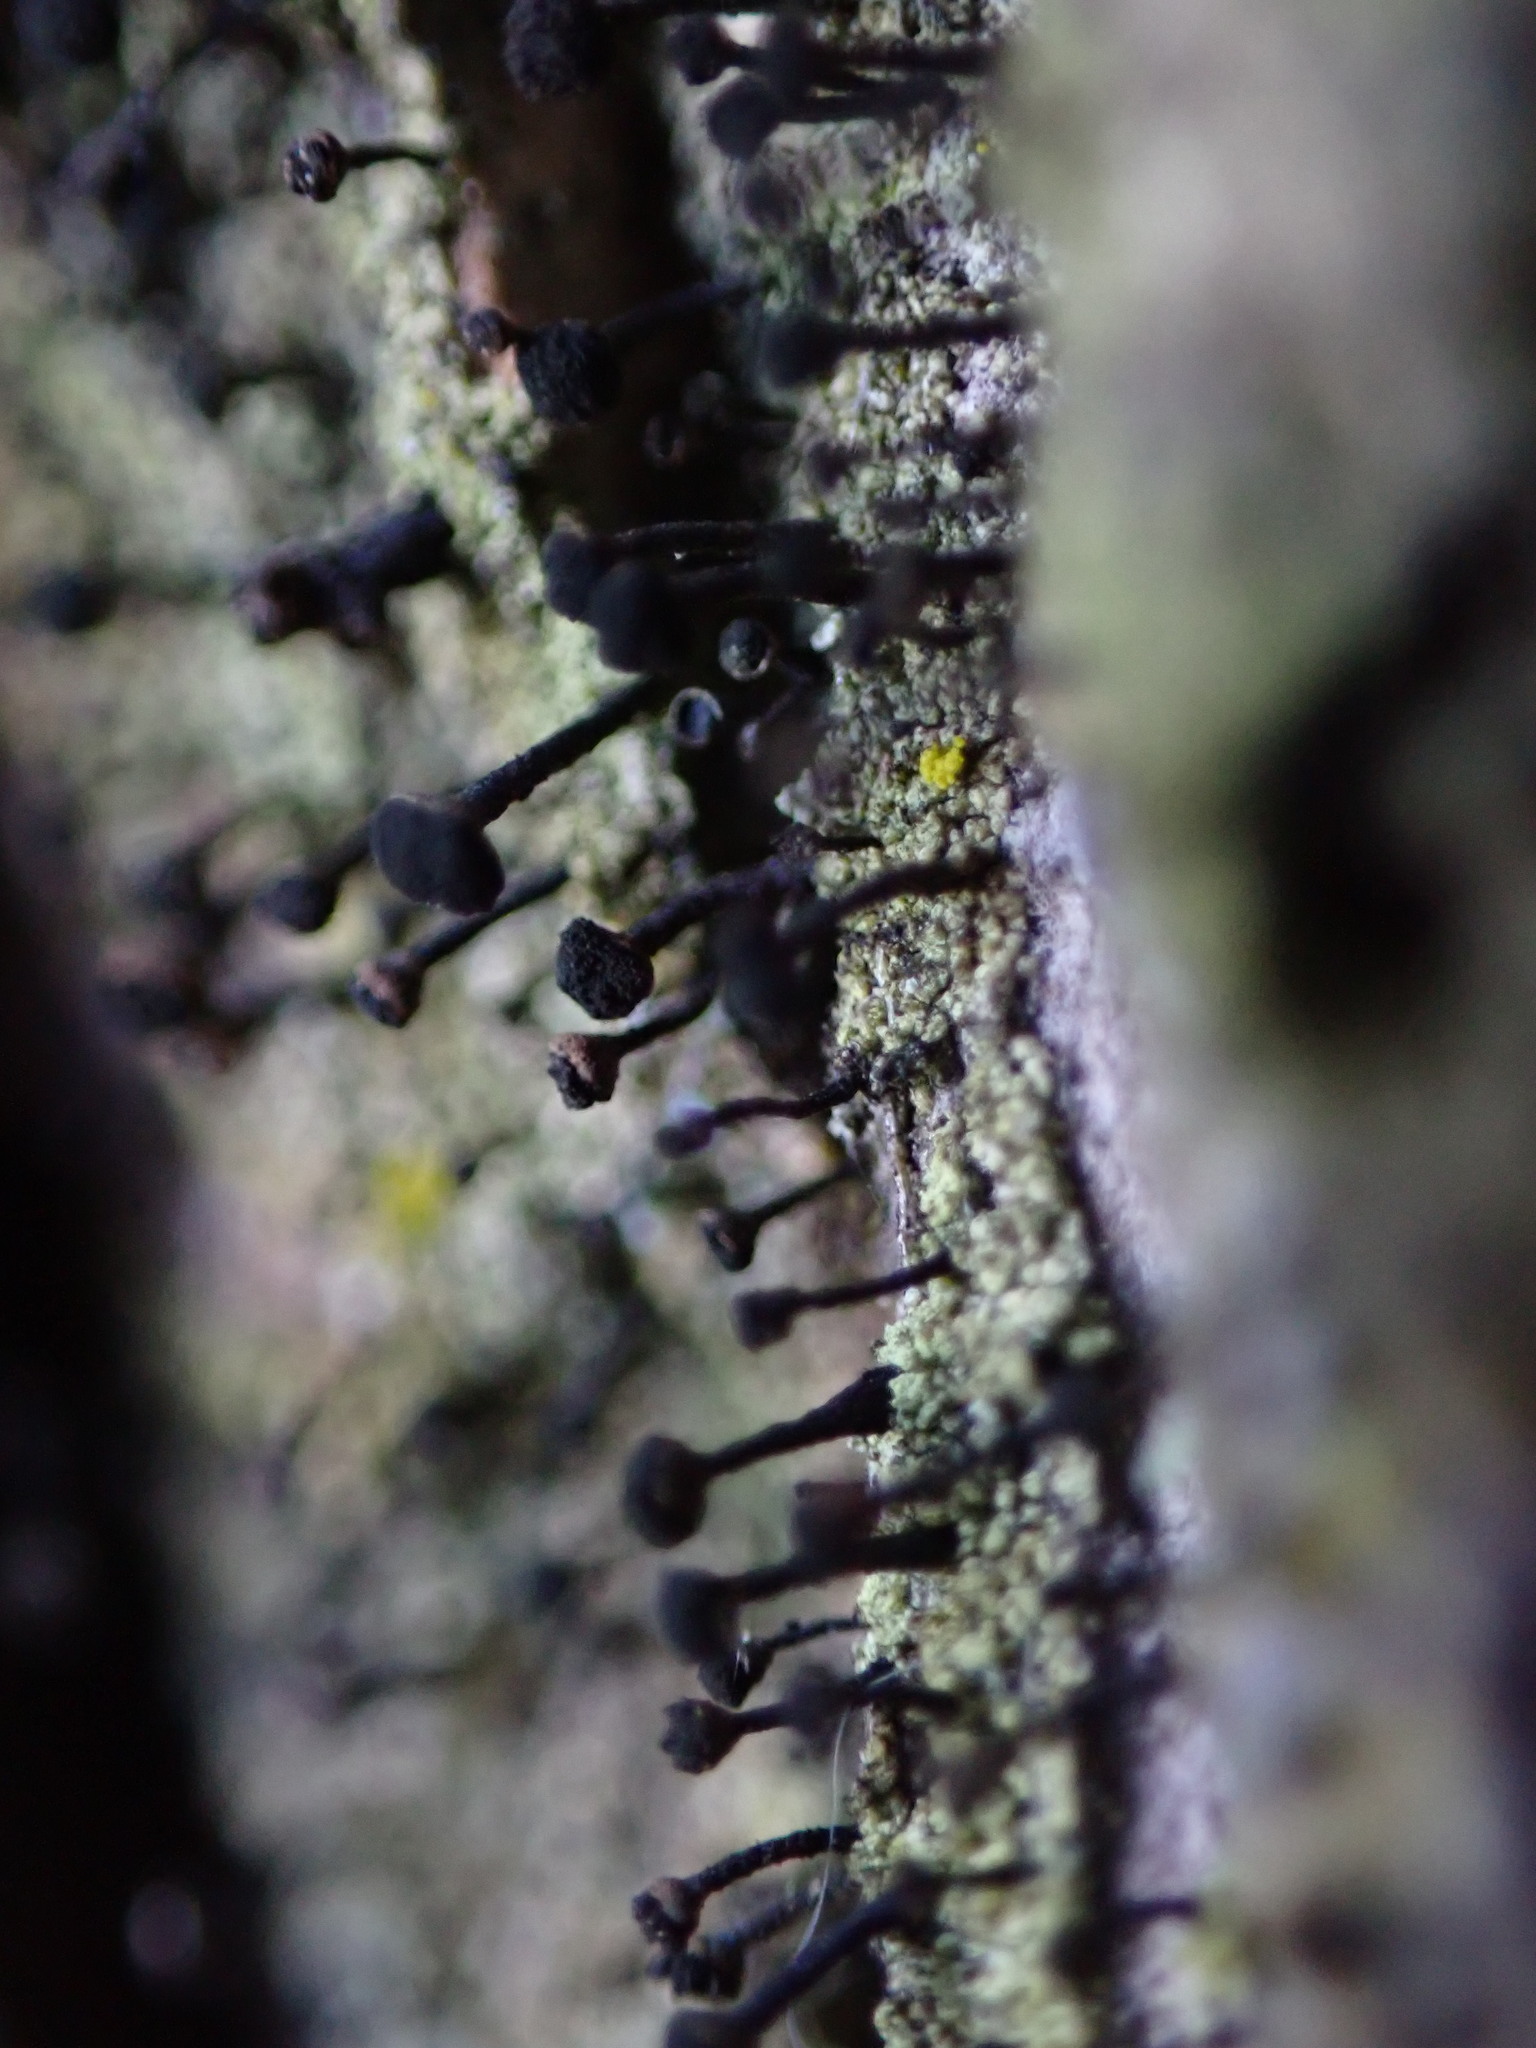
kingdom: Fungi
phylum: Ascomycota
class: Lecanoromycetes
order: Caliciales
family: Caliciaceae
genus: Calicium
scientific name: Calicium viride
